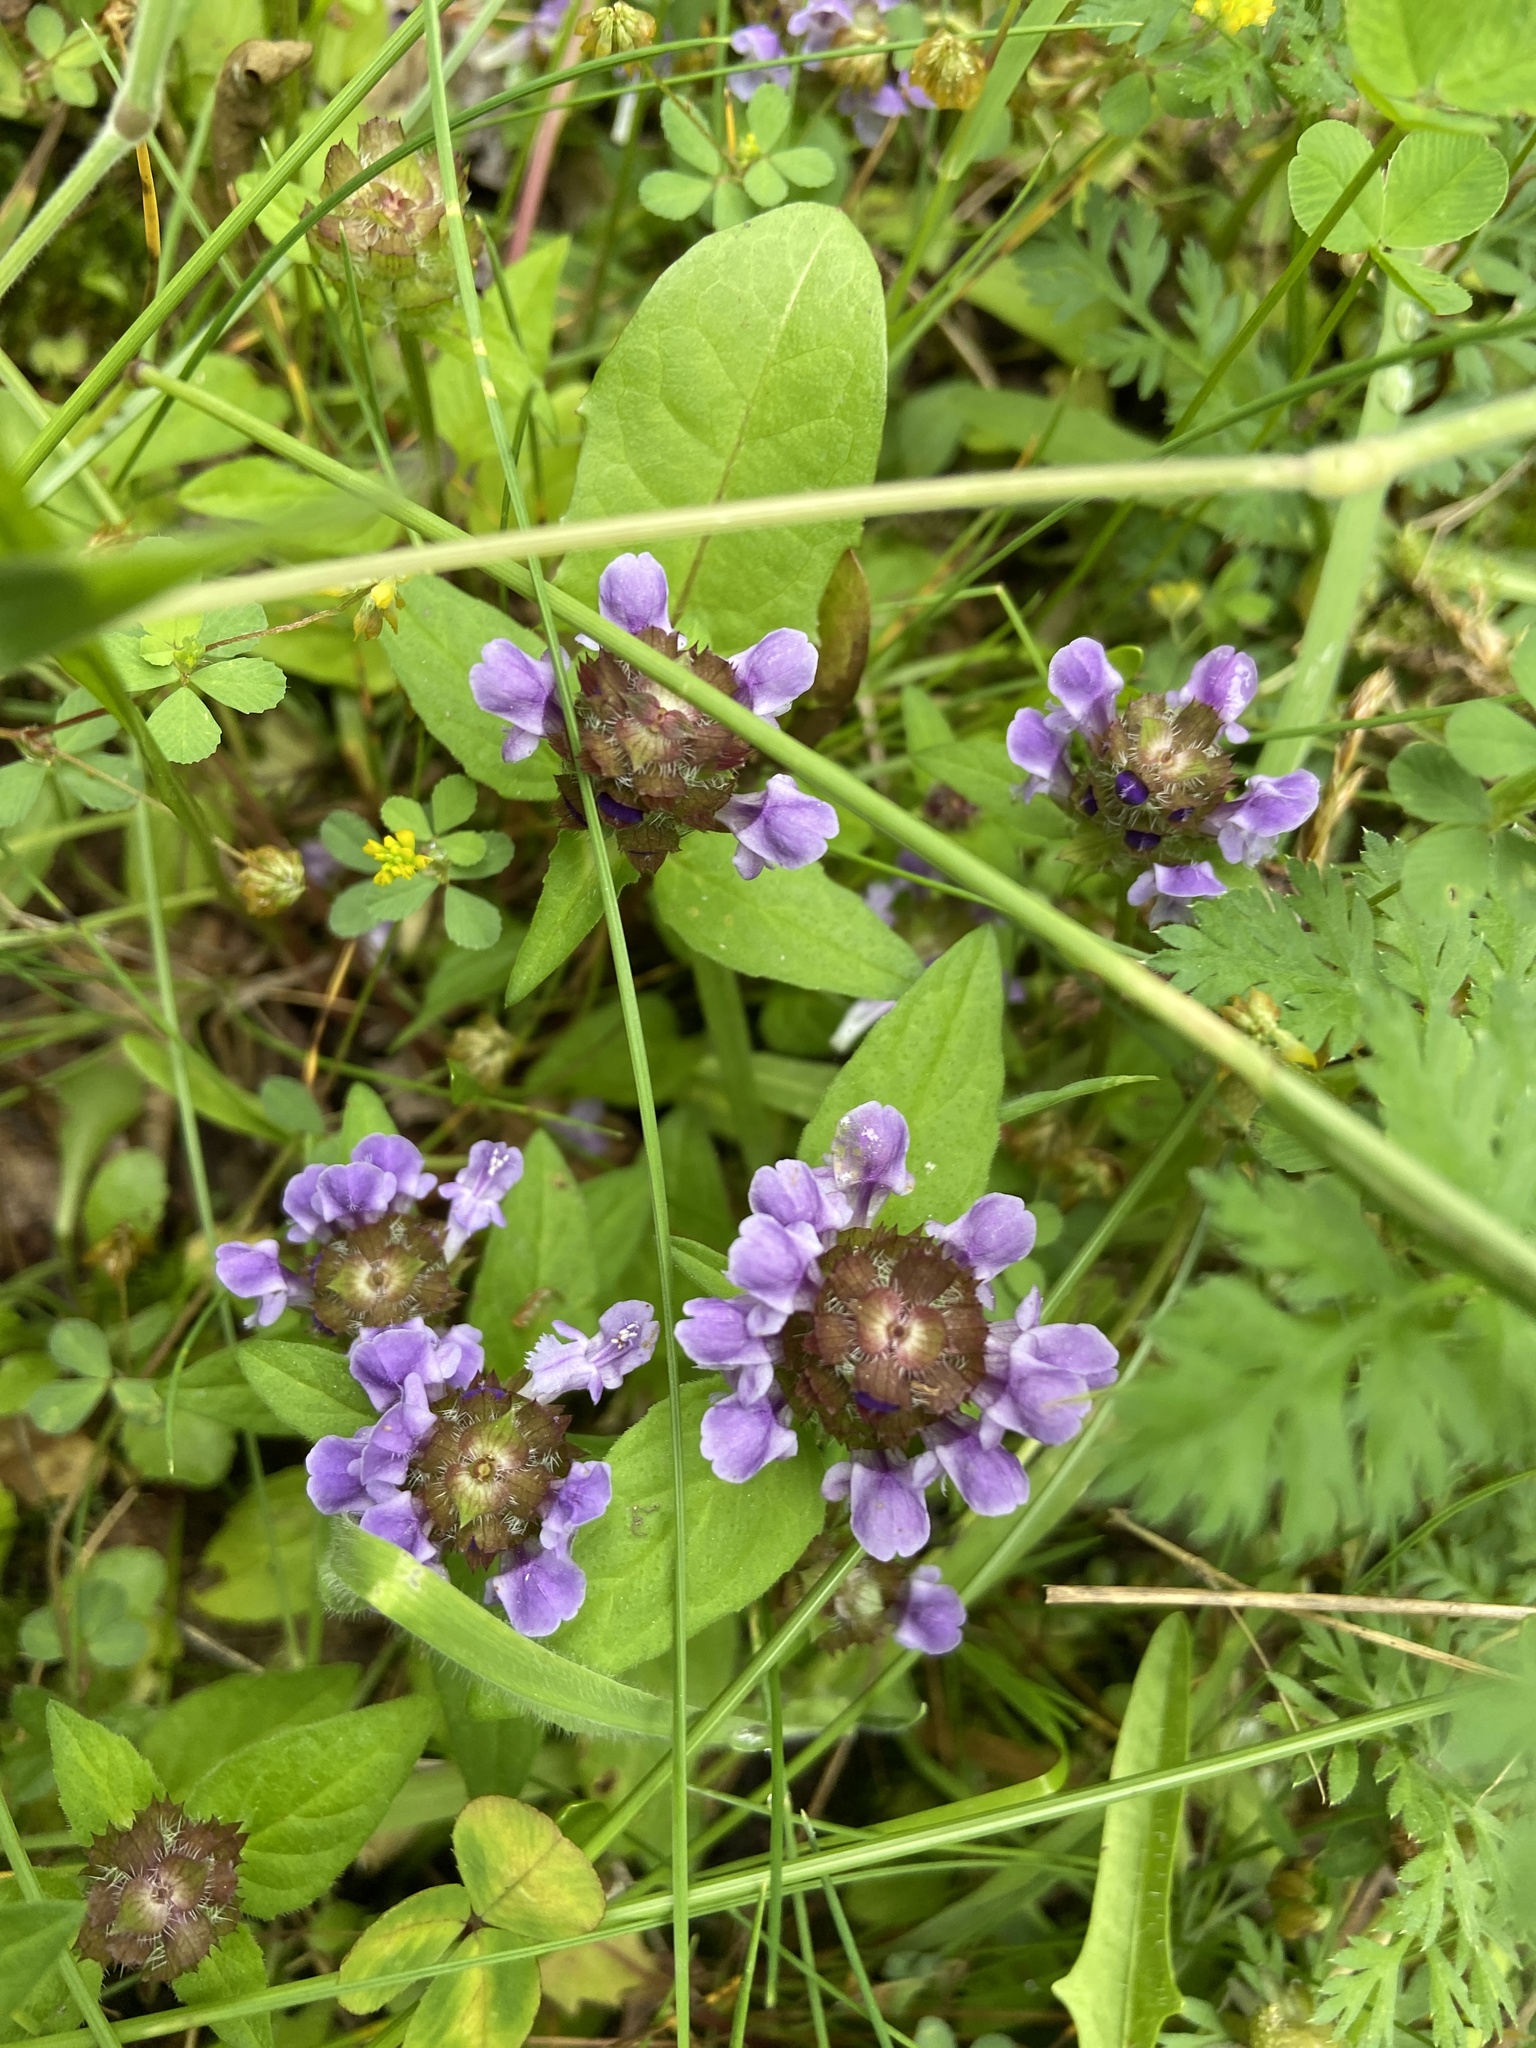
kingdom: Plantae
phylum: Tracheophyta
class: Magnoliopsida
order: Lamiales
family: Lamiaceae
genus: Prunella
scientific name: Prunella vulgaris
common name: Heal-all
